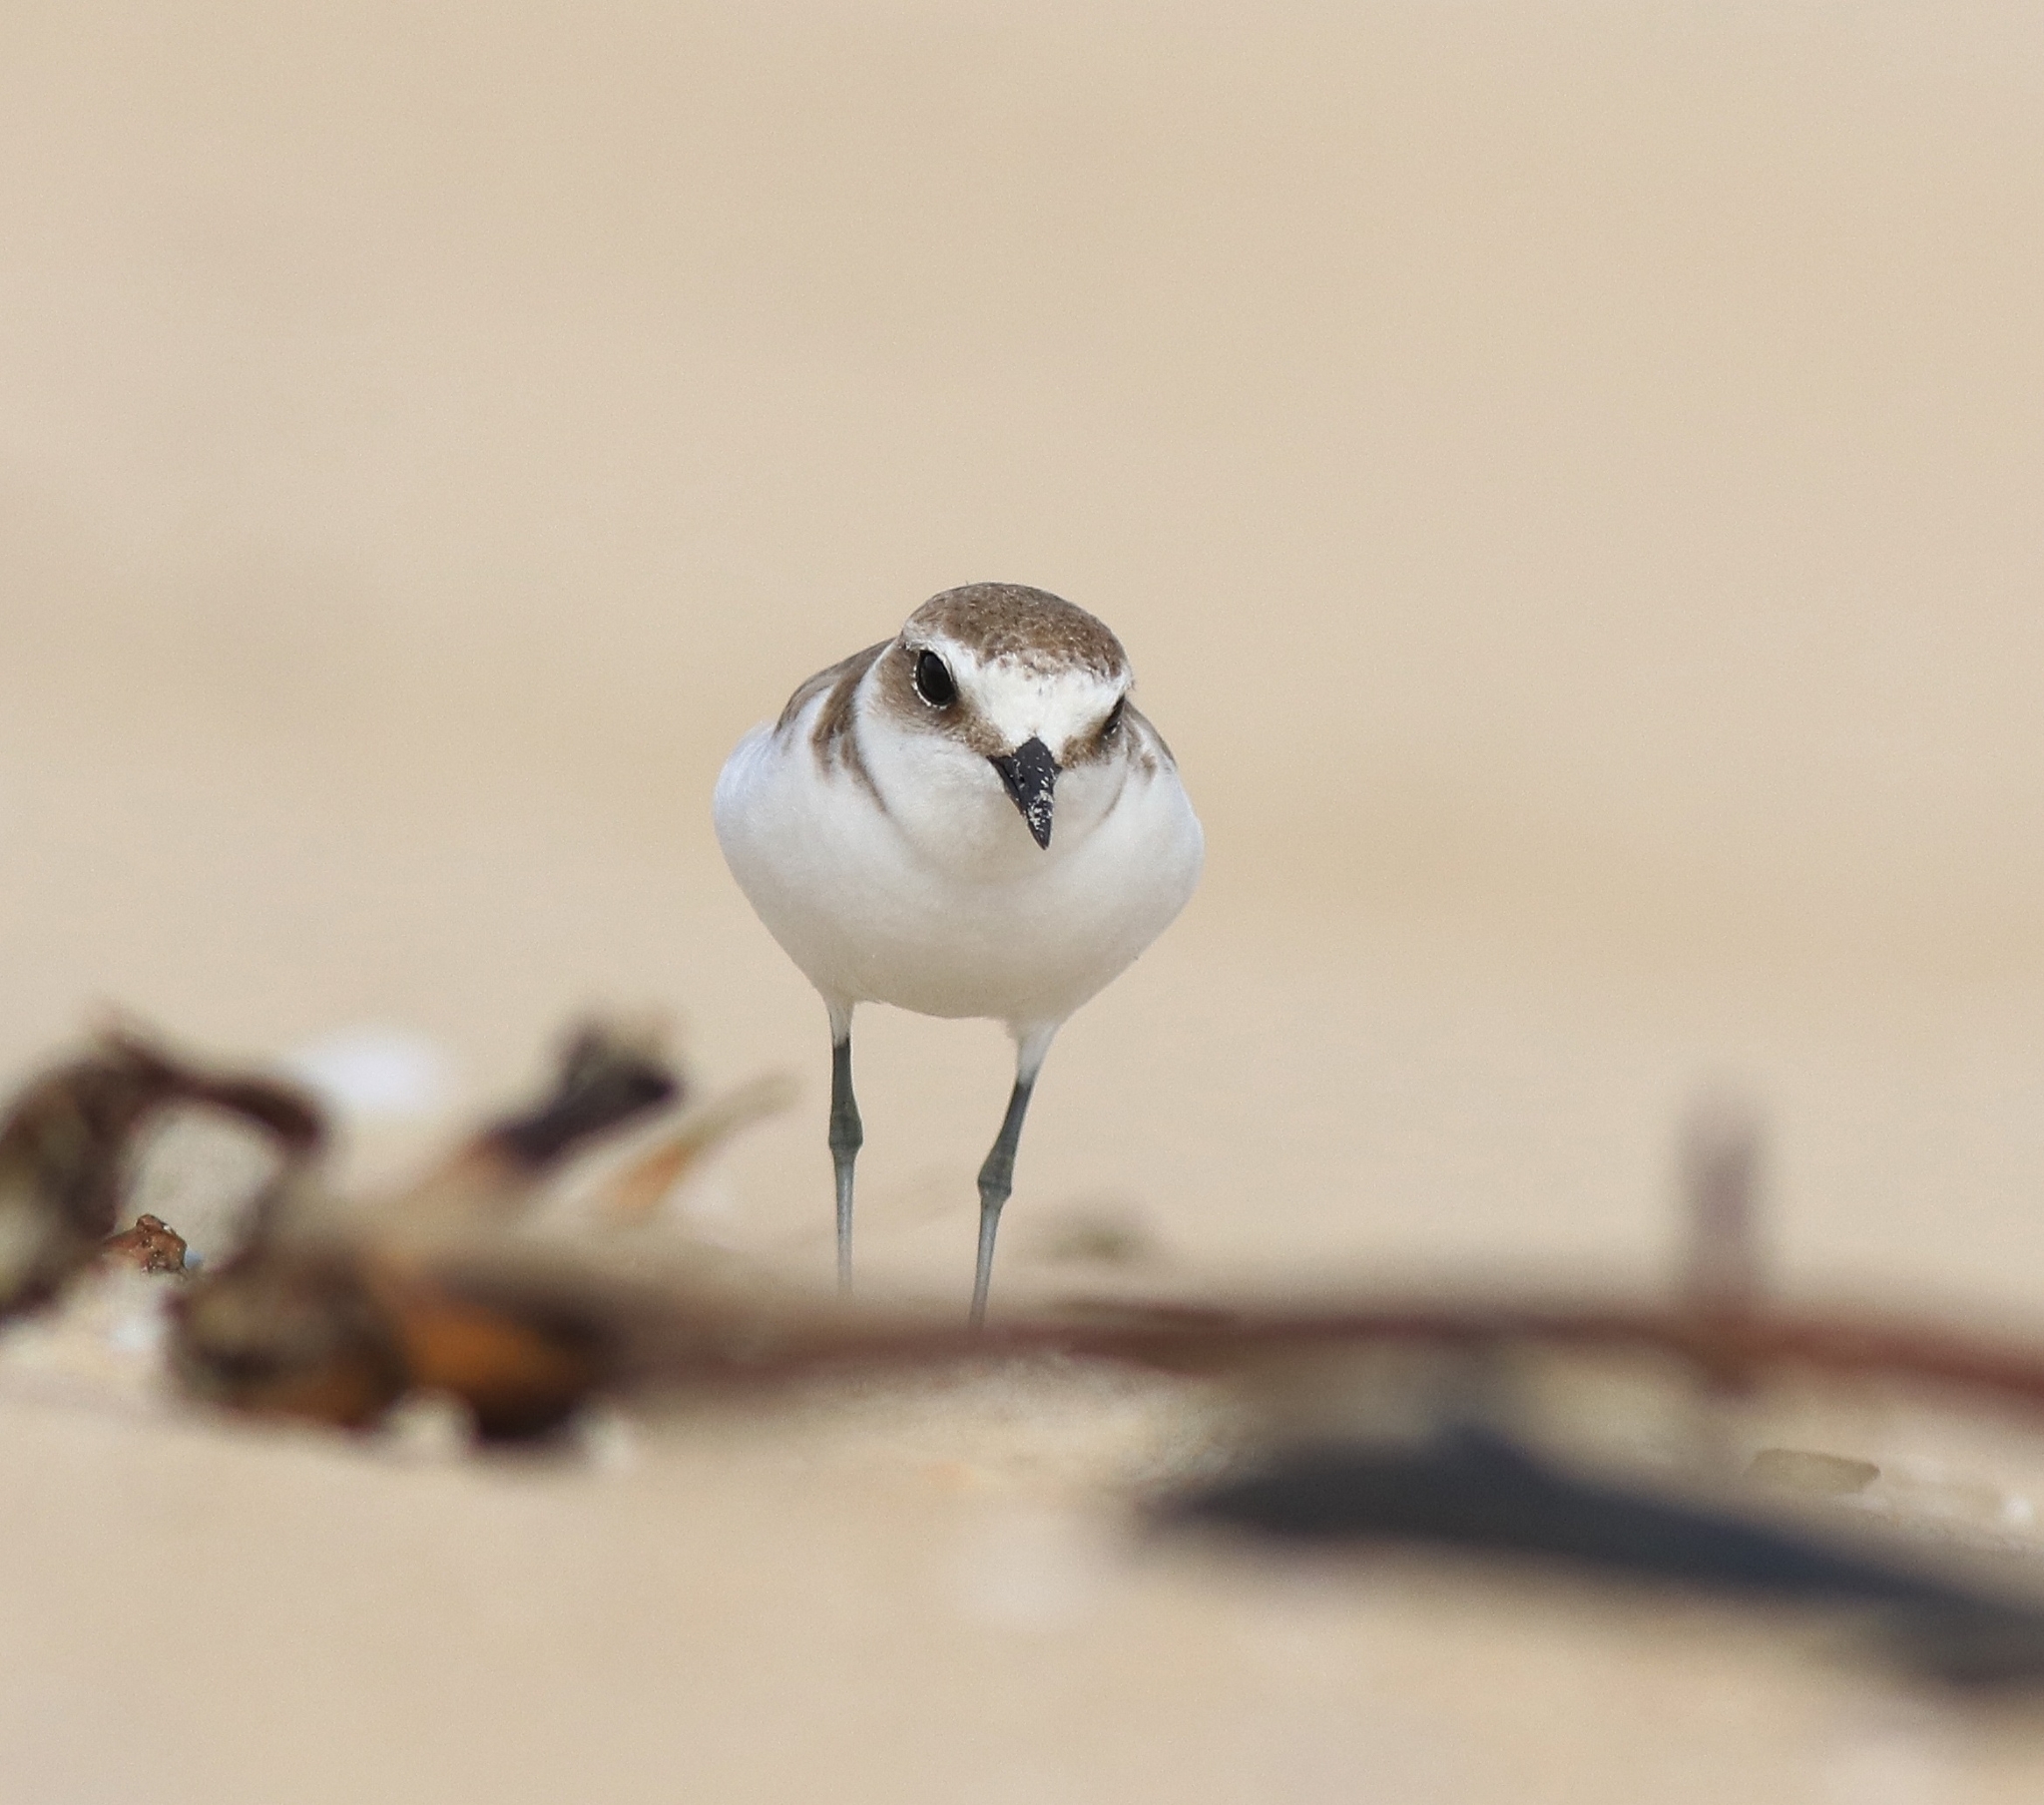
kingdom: Animalia
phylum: Chordata
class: Aves
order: Charadriiformes
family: Charadriidae
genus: Charadrius
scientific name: Charadrius alexandrinus
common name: Kentish plover
